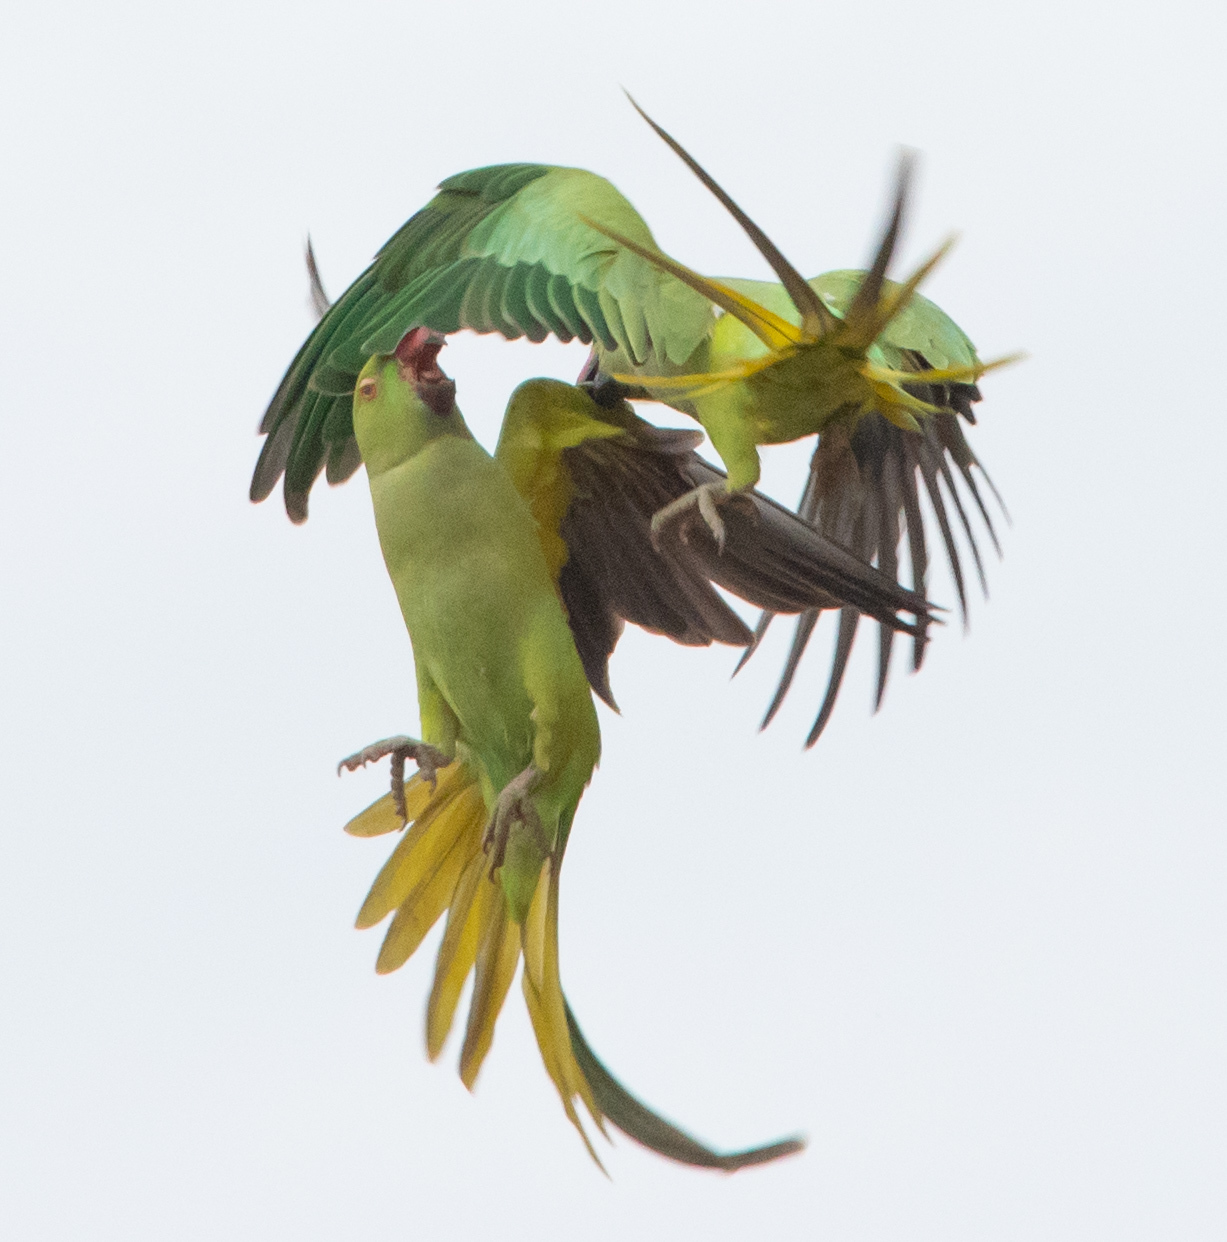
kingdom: Animalia
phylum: Chordata
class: Aves
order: Psittaciformes
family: Psittacidae
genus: Psittacula
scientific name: Psittacula krameri
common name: Rose-ringed parakeet
